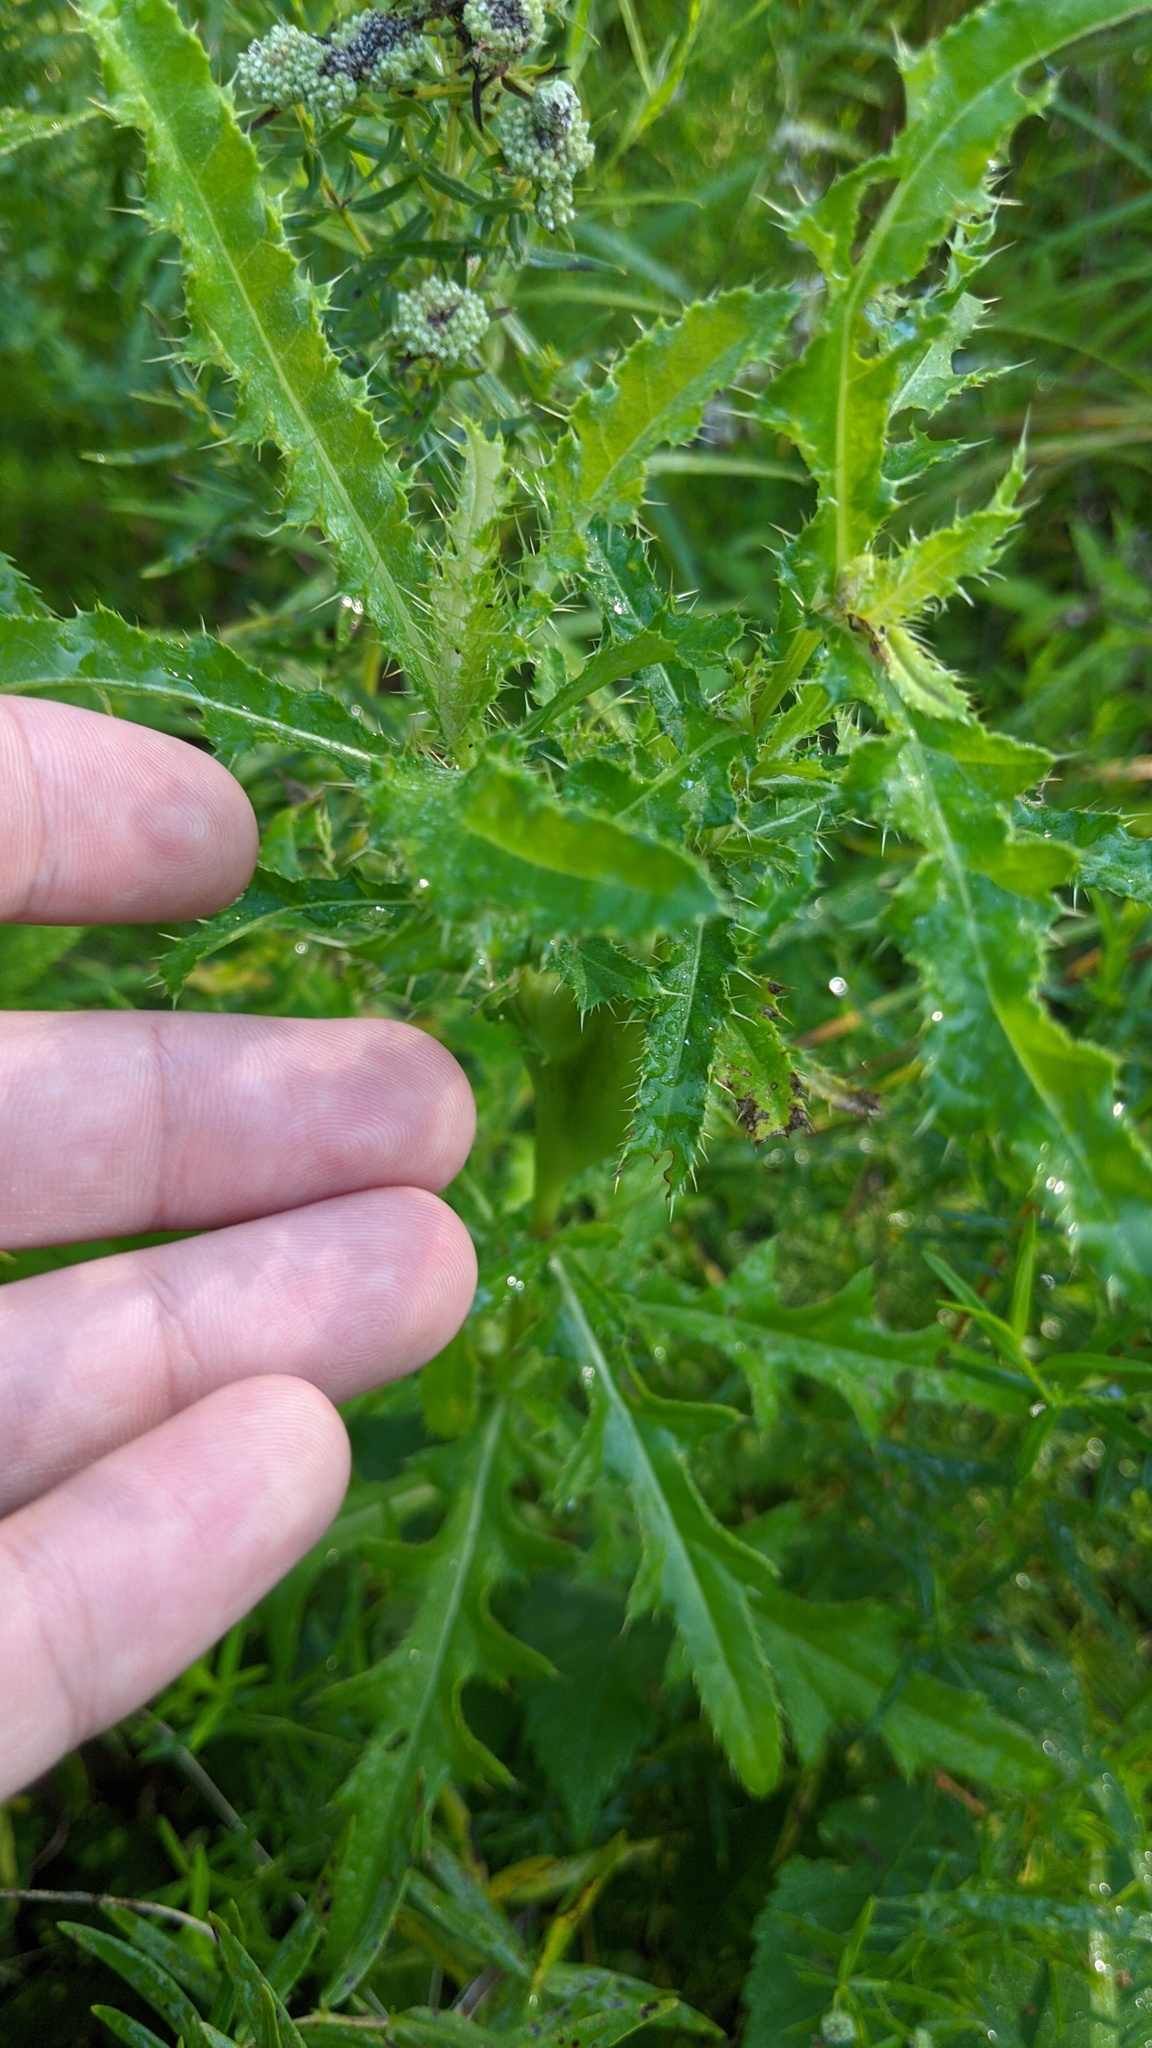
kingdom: Plantae
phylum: Tracheophyta
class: Magnoliopsida
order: Asterales
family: Asteraceae
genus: Cirsium
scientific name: Cirsium arvense
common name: Creeping thistle
